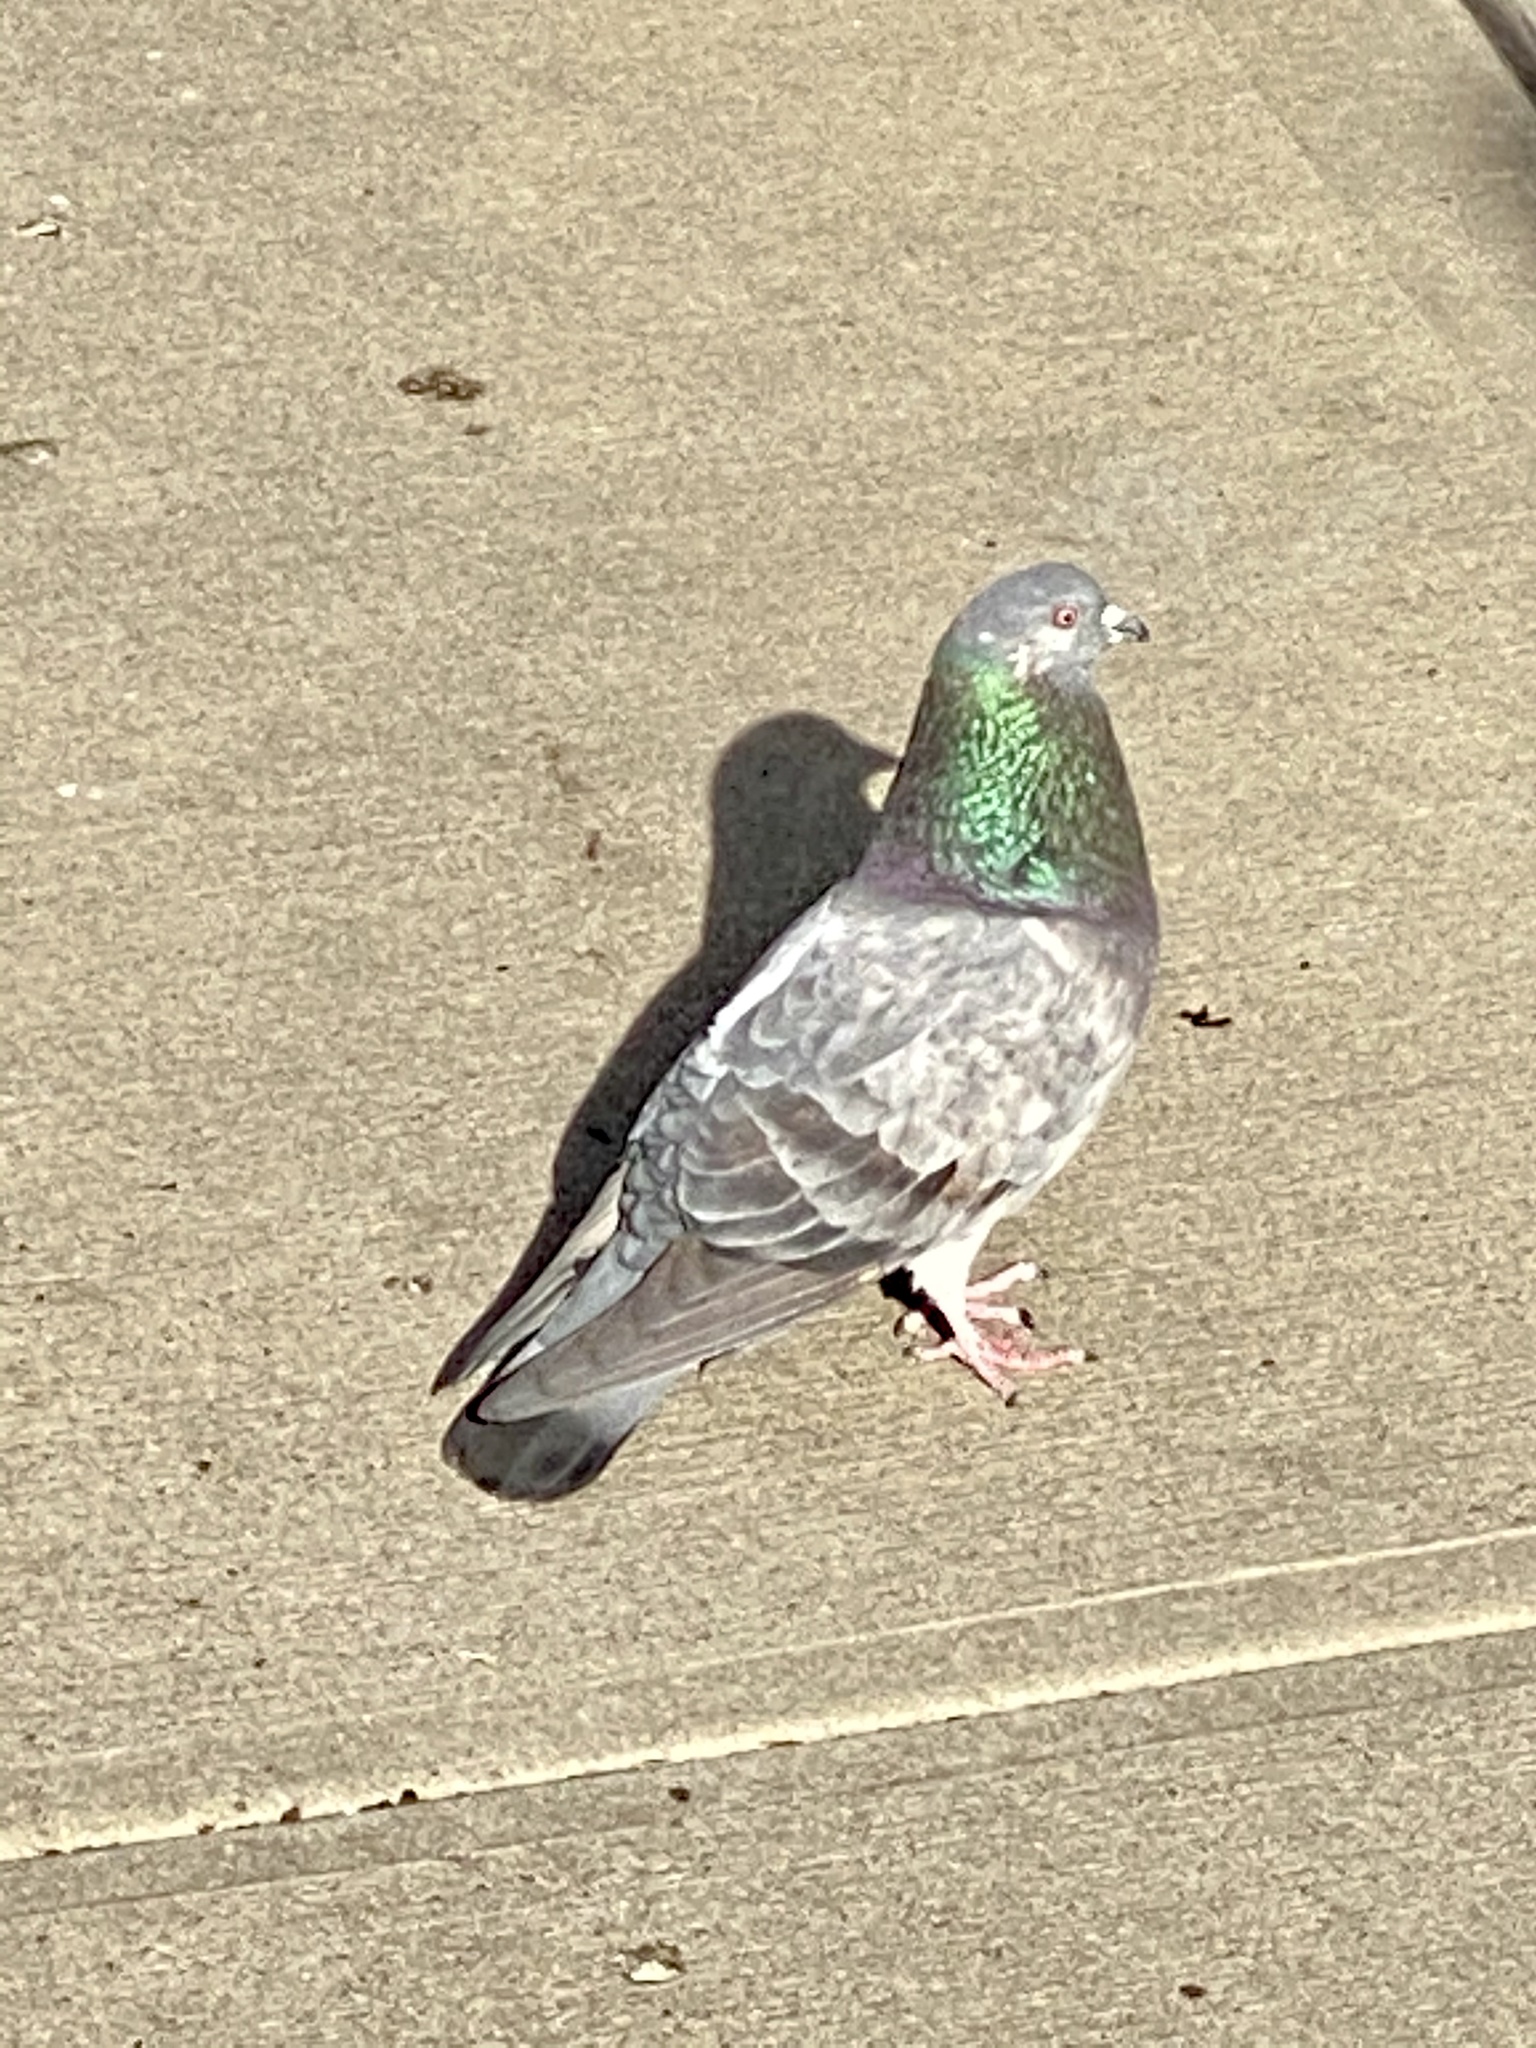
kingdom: Animalia
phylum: Chordata
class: Aves
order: Columbiformes
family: Columbidae
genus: Columba
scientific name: Columba livia
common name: Rock pigeon
